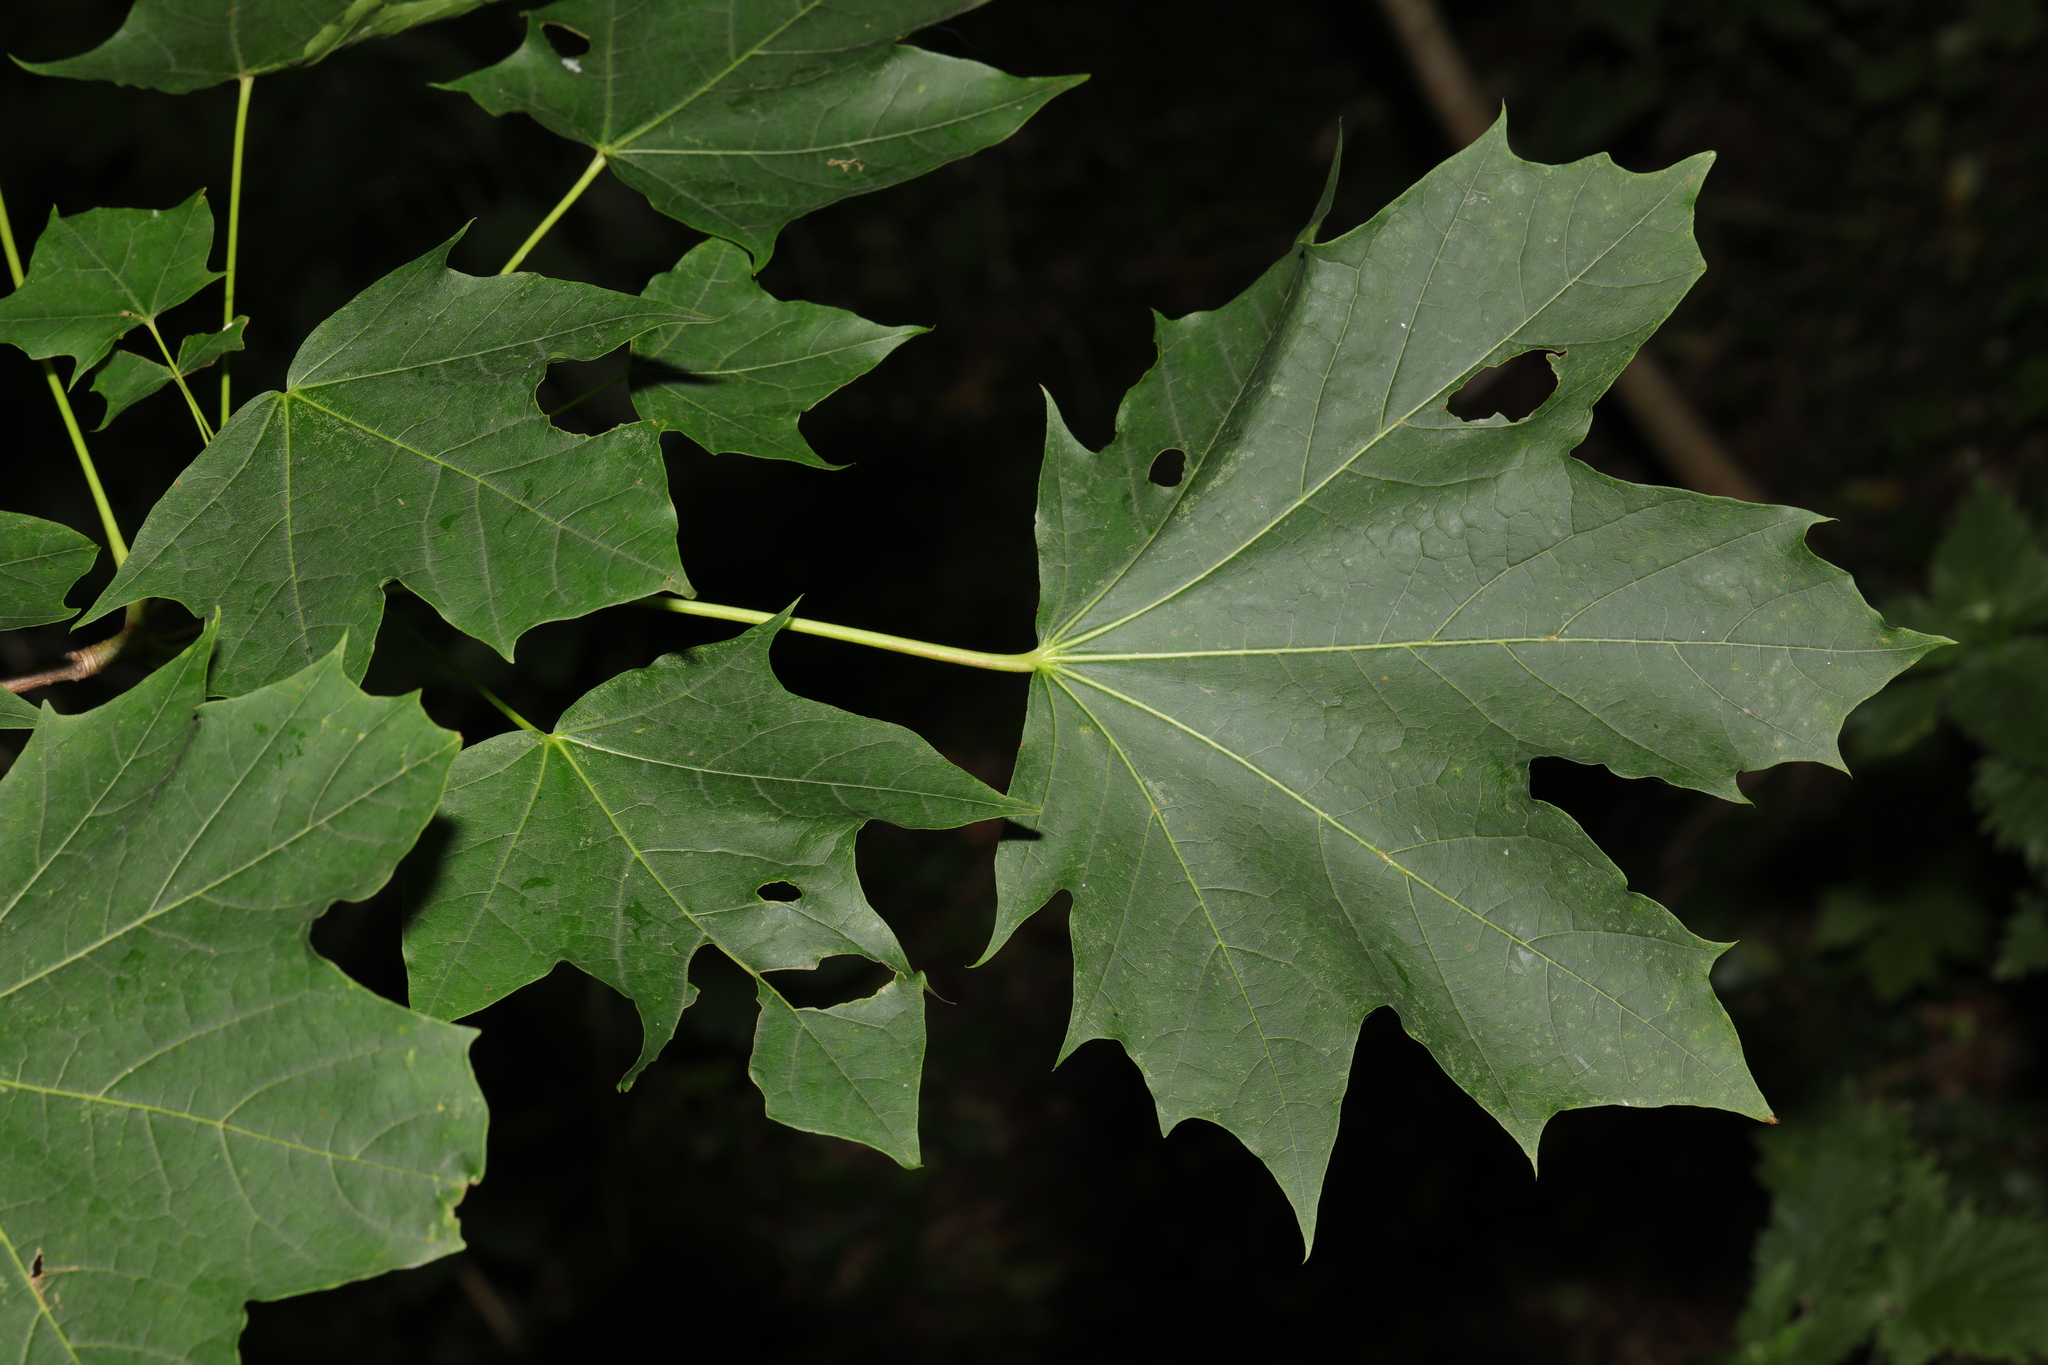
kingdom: Plantae
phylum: Tracheophyta
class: Magnoliopsida
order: Sapindales
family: Sapindaceae
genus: Acer
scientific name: Acer platanoides
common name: Norway maple
